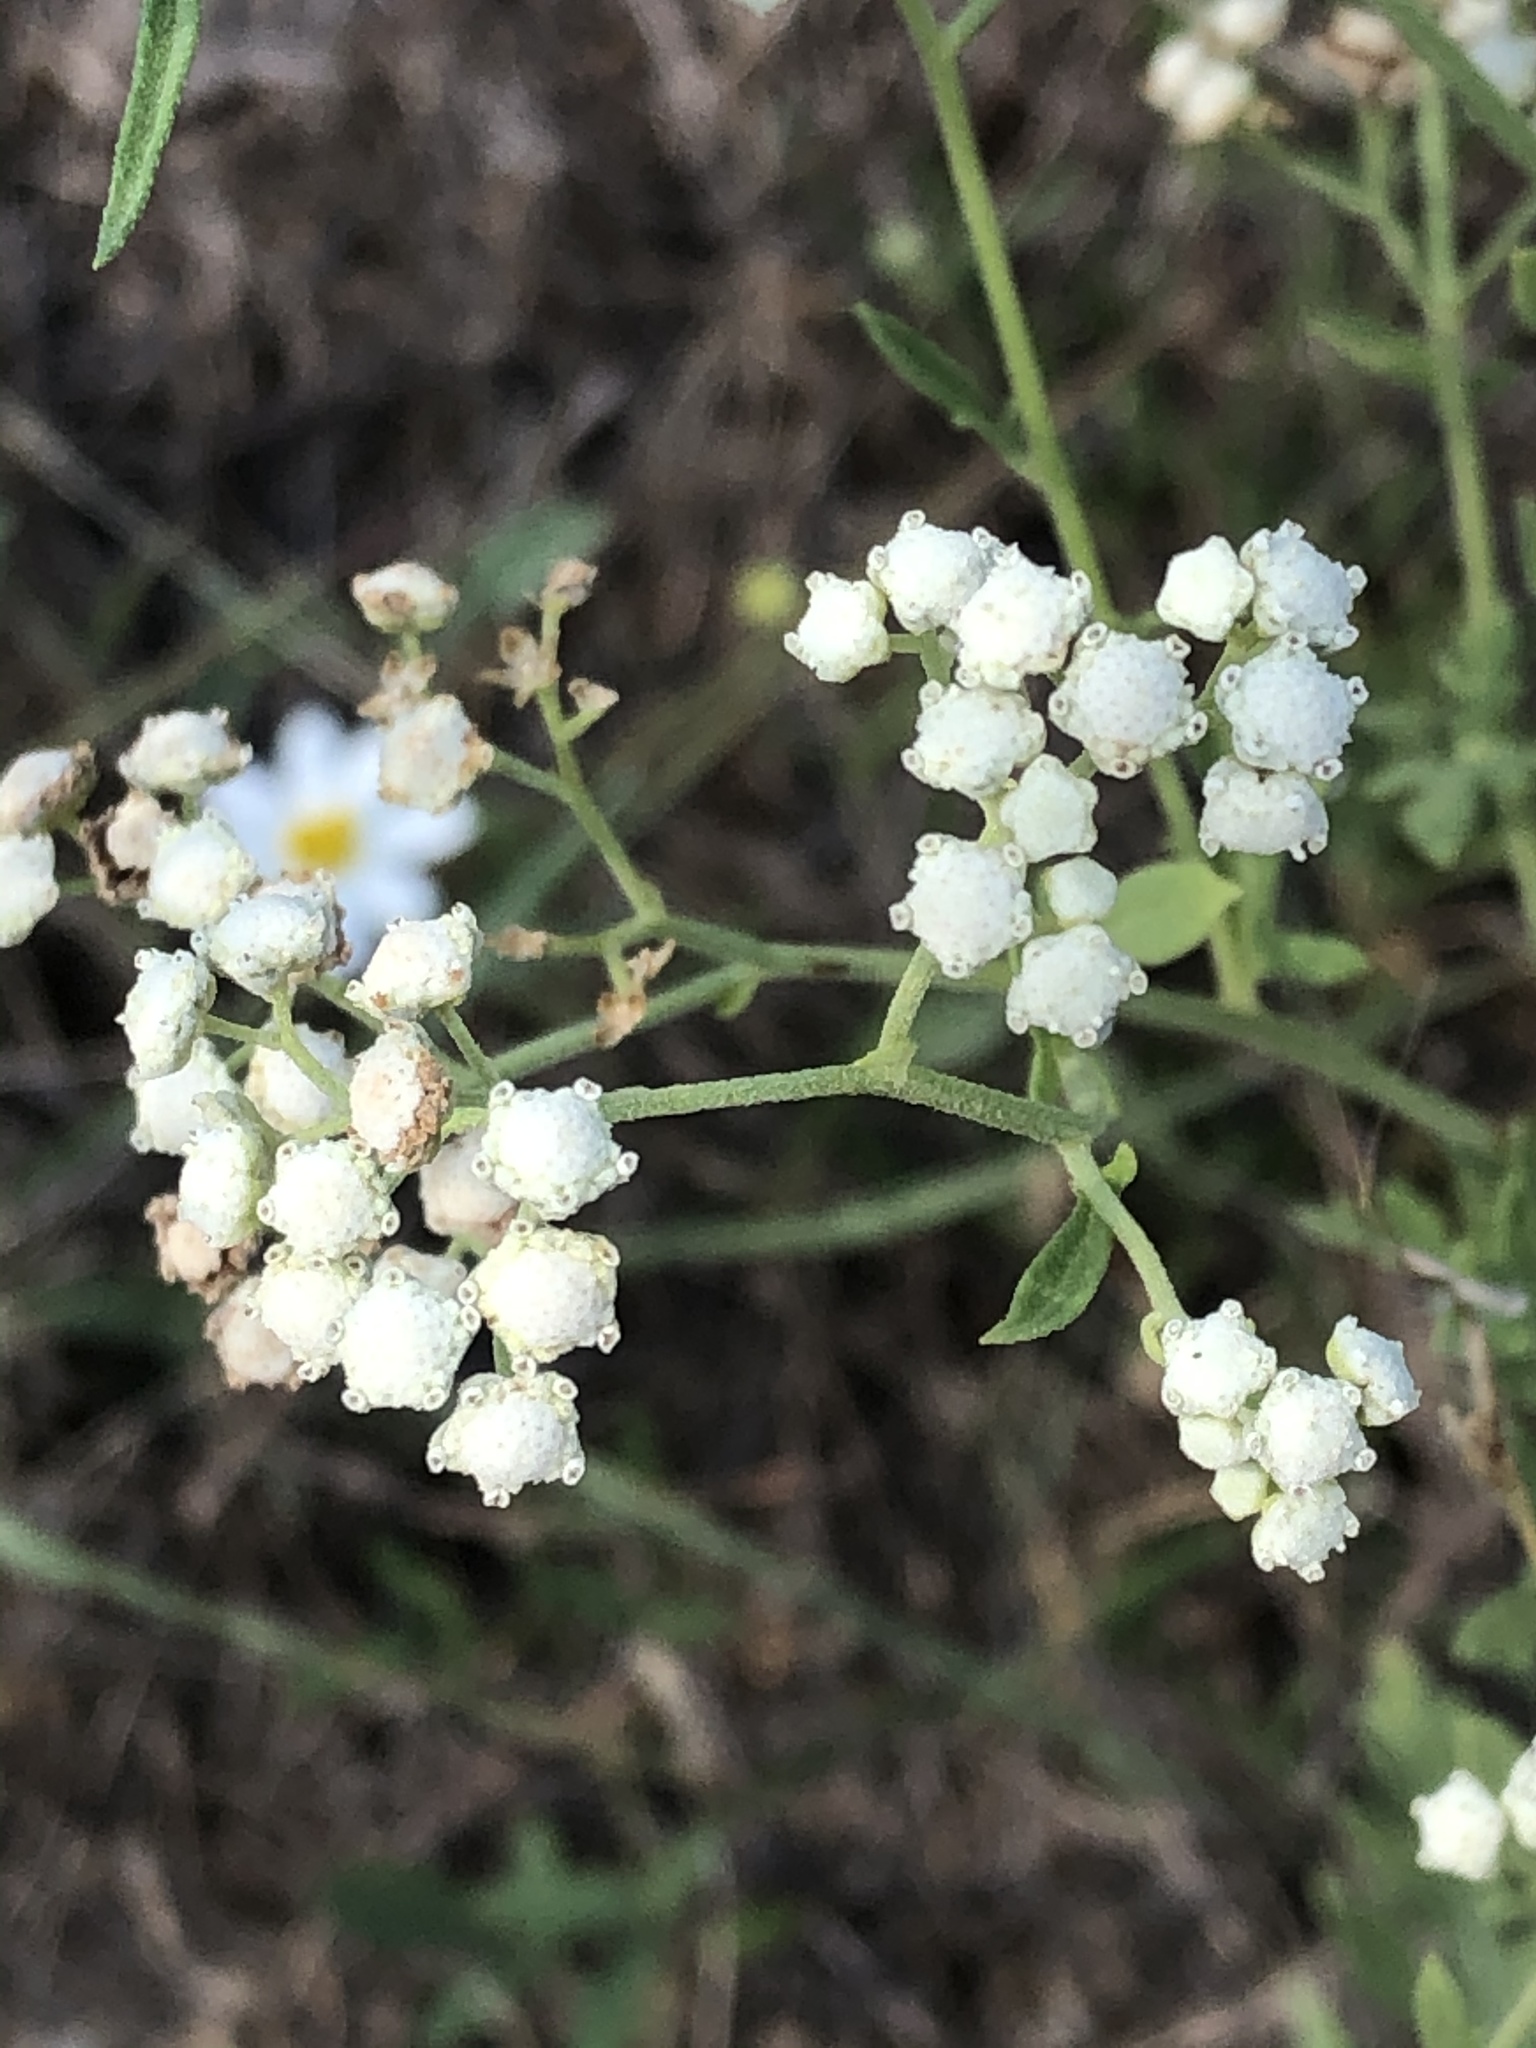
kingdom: Plantae
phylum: Tracheophyta
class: Magnoliopsida
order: Asterales
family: Asteraceae
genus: Parthenium
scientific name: Parthenium hysterophorus
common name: Santa maria feverfew
